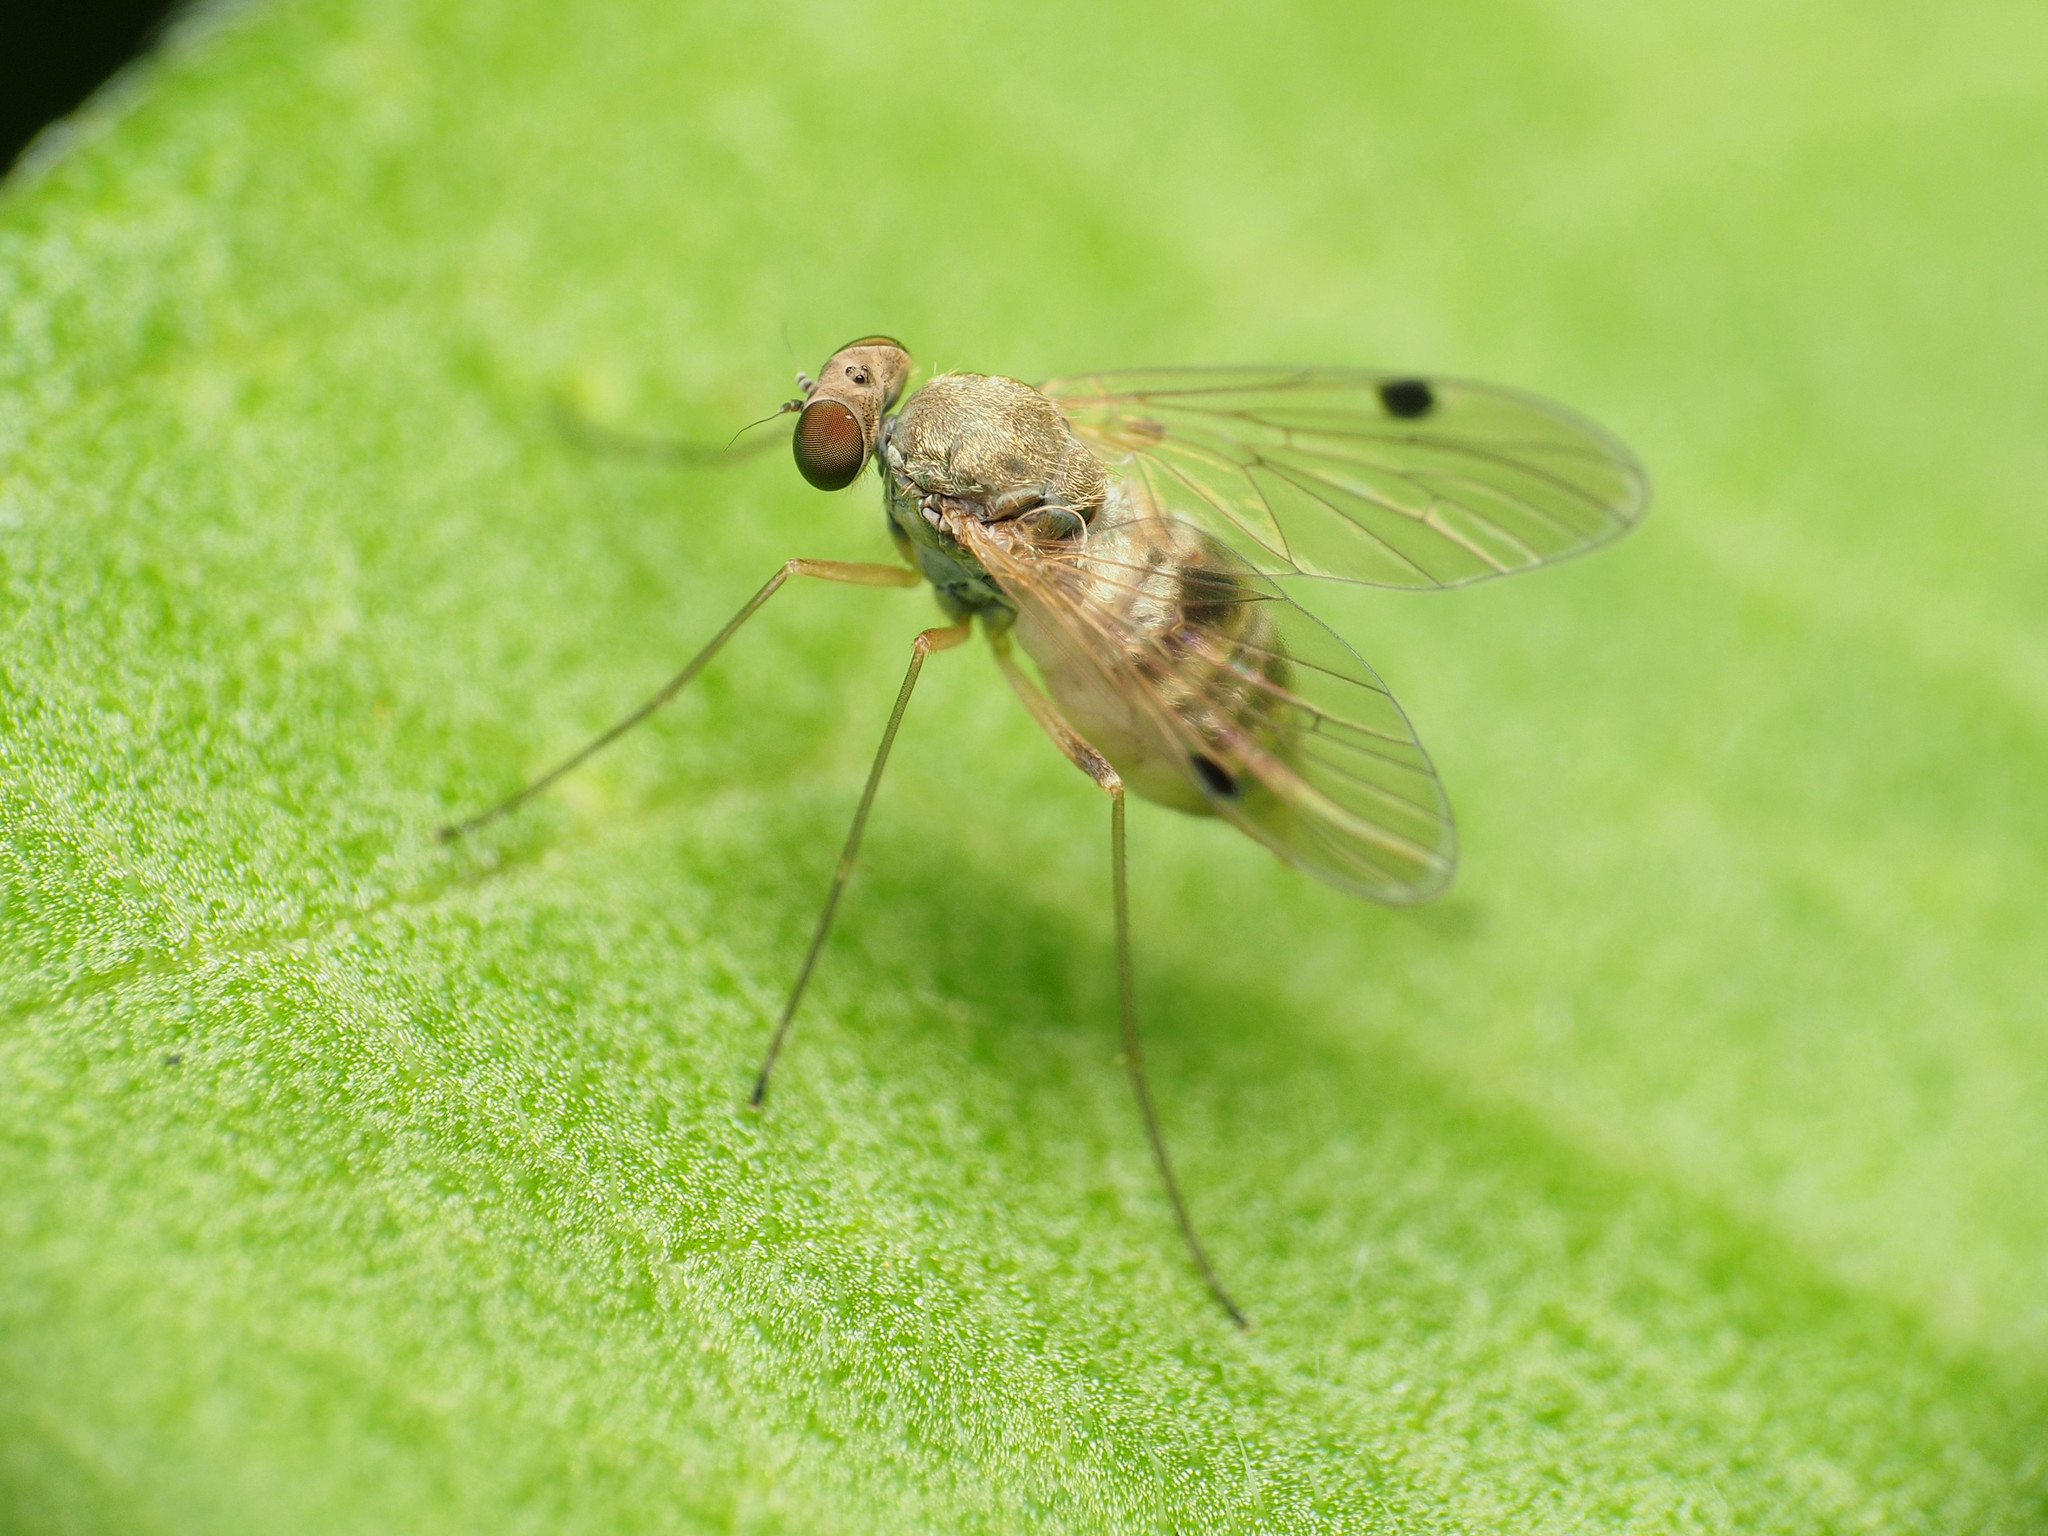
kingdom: Animalia
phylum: Arthropoda
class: Insecta
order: Diptera
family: Rhagionidae
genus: Chrysopilus
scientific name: Chrysopilus modestus
